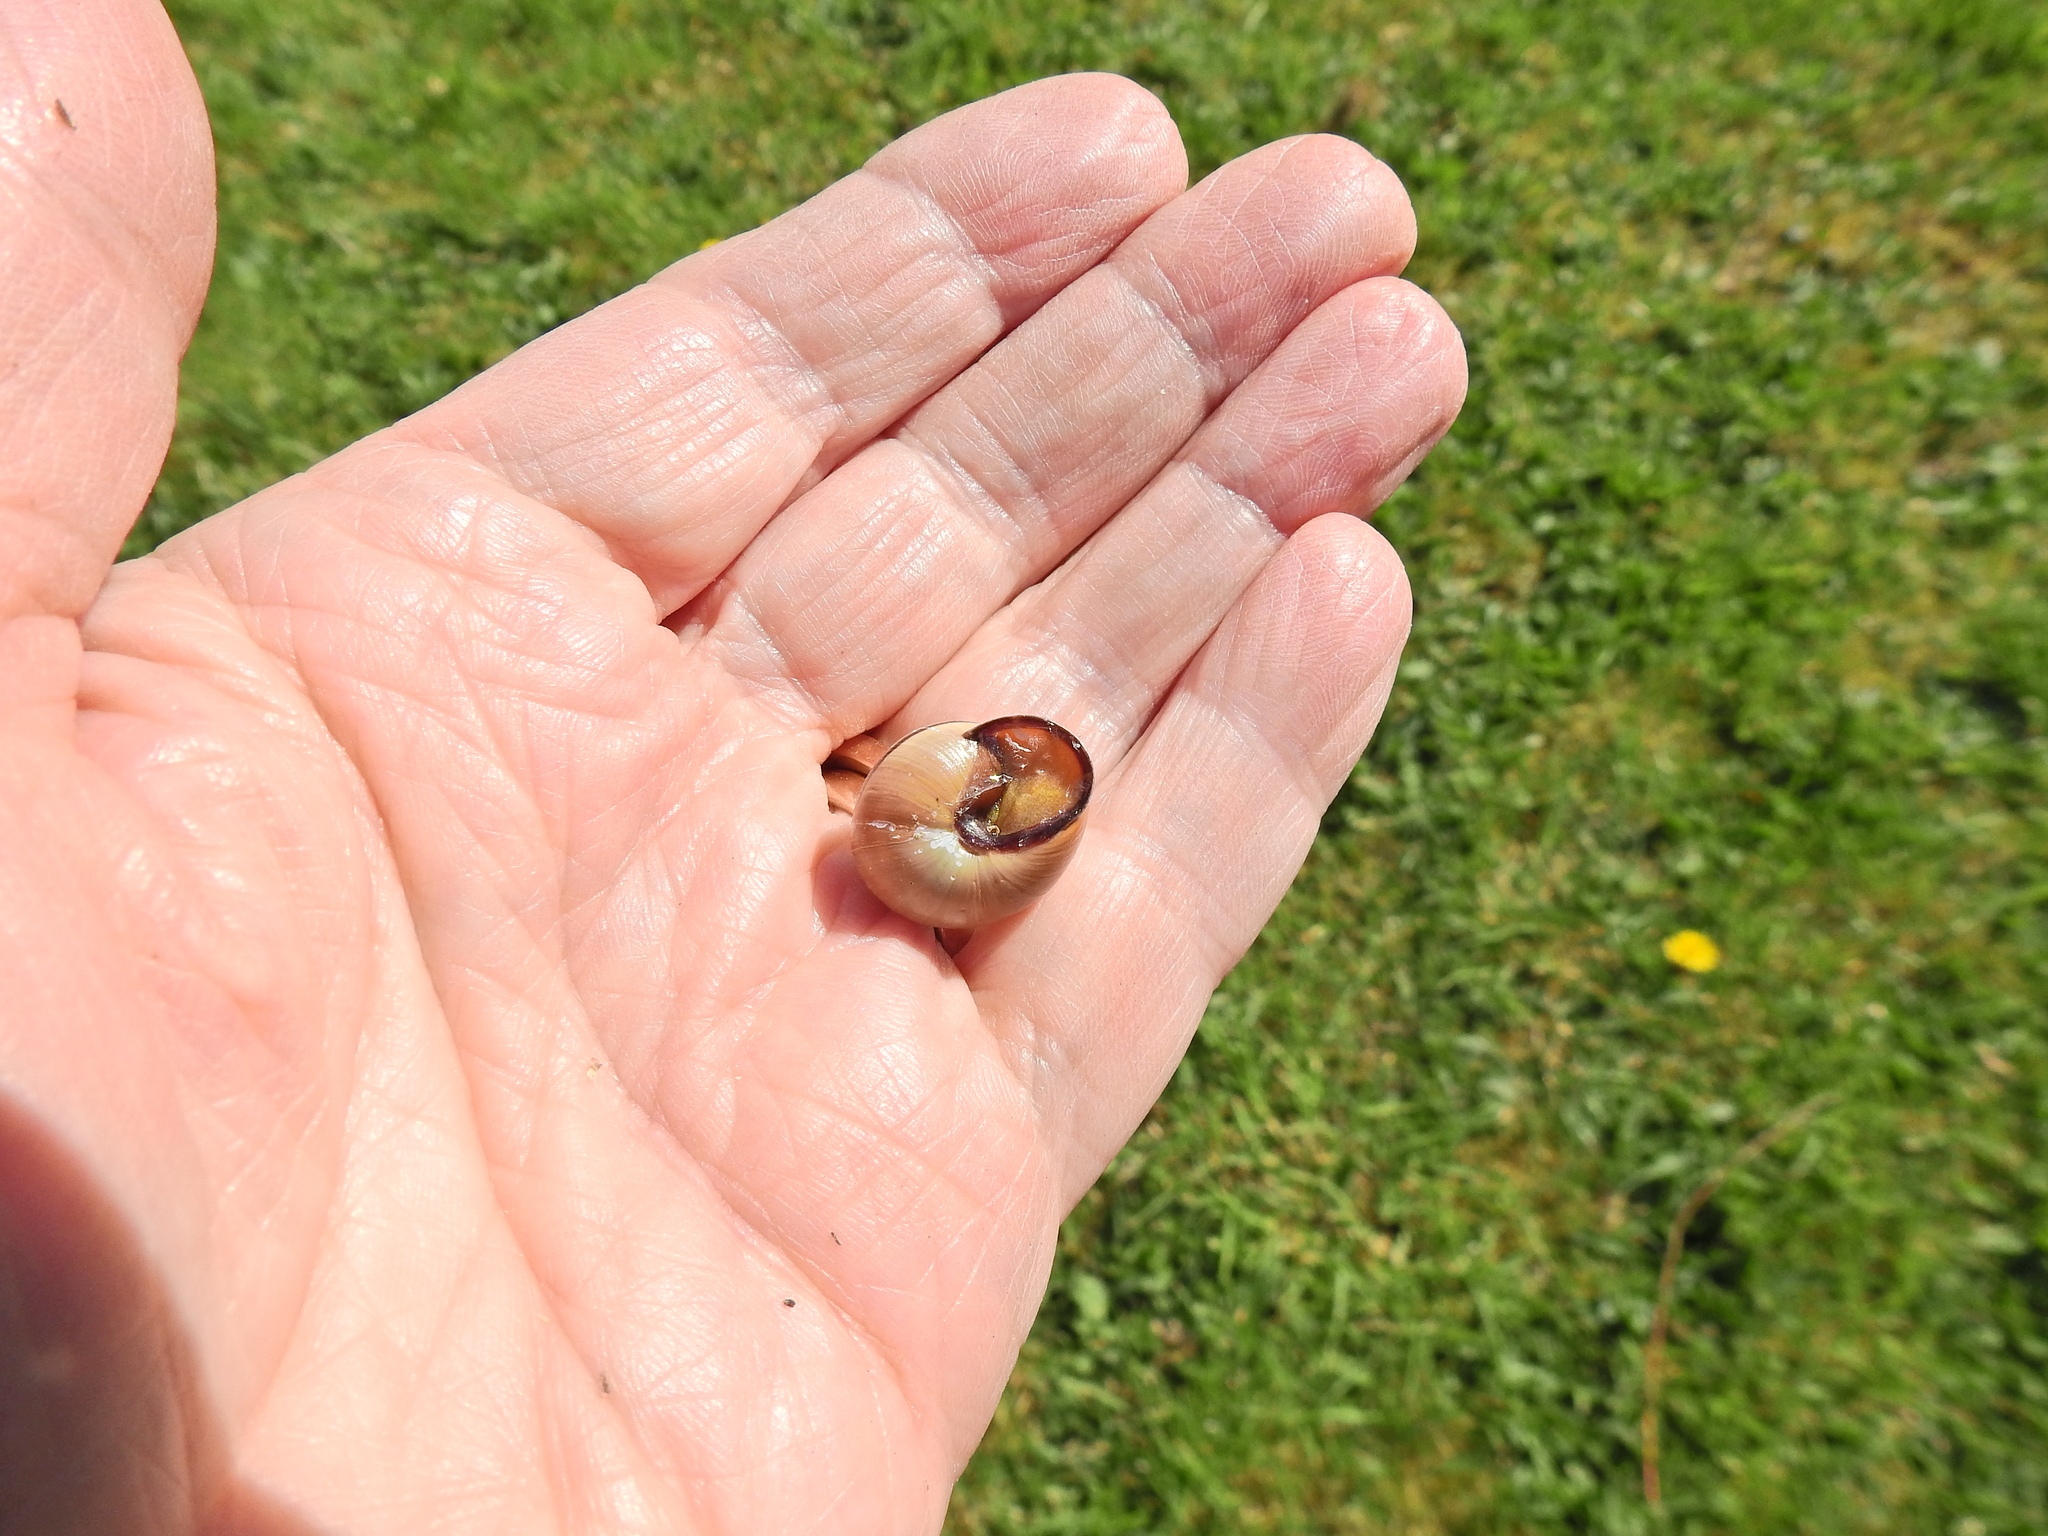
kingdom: Animalia
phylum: Mollusca
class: Gastropoda
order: Stylommatophora
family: Helicidae
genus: Cepaea
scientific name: Cepaea nemoralis
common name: Grovesnail
